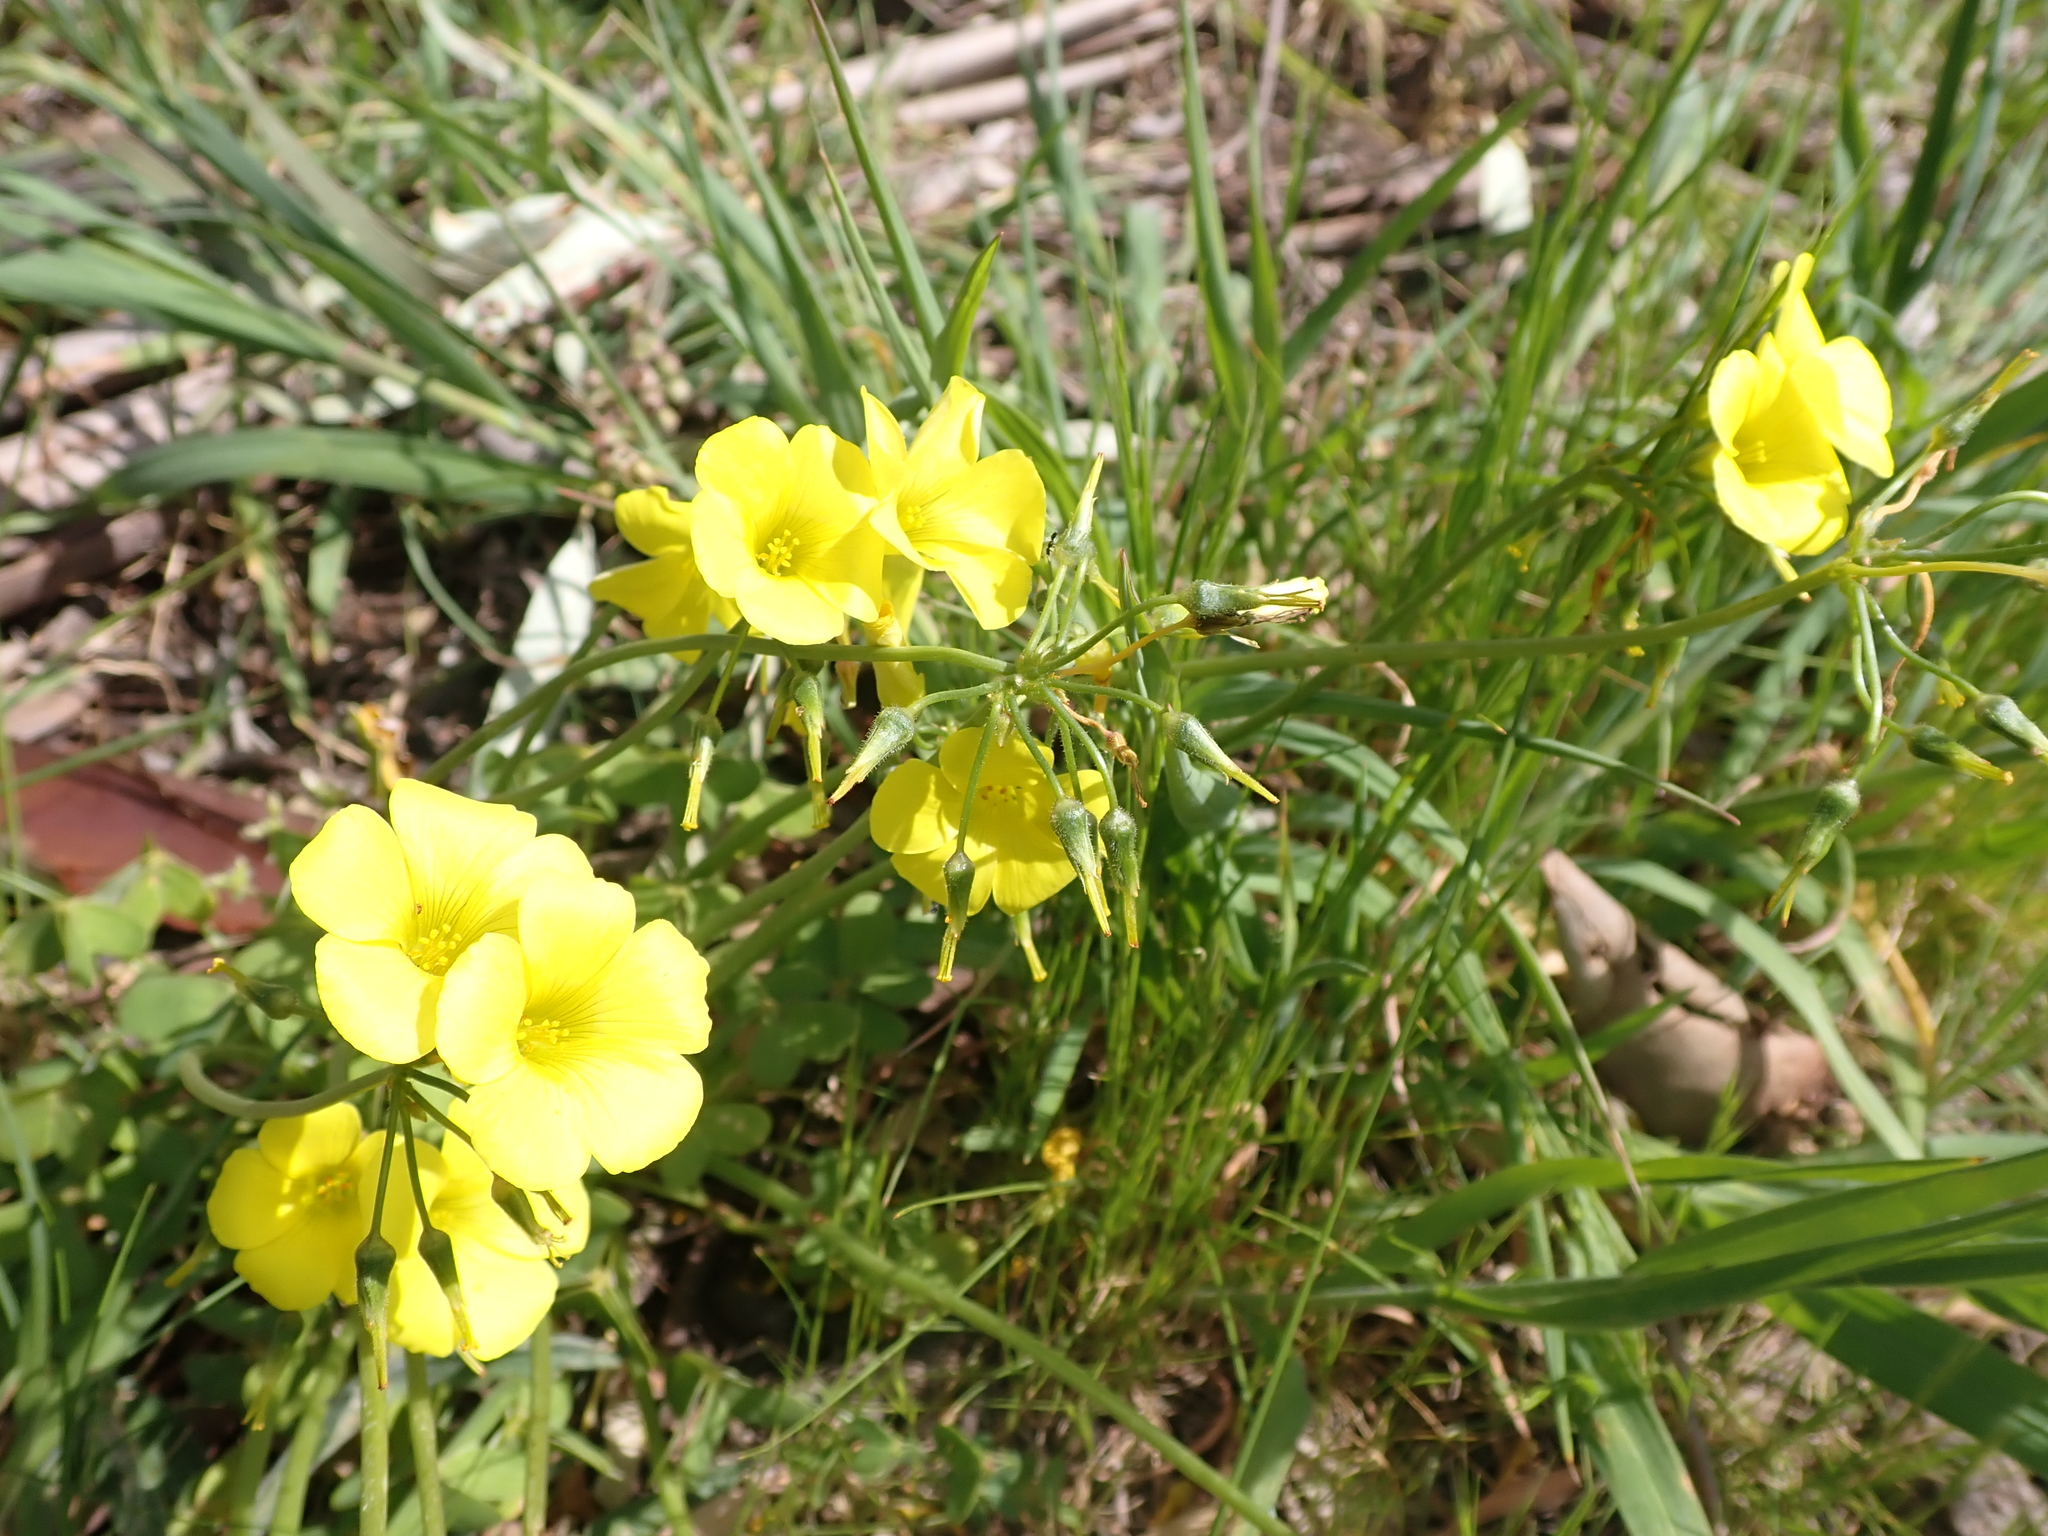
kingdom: Plantae
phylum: Tracheophyta
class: Magnoliopsida
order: Oxalidales
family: Oxalidaceae
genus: Oxalis
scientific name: Oxalis pes-caprae
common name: Bermuda-buttercup
